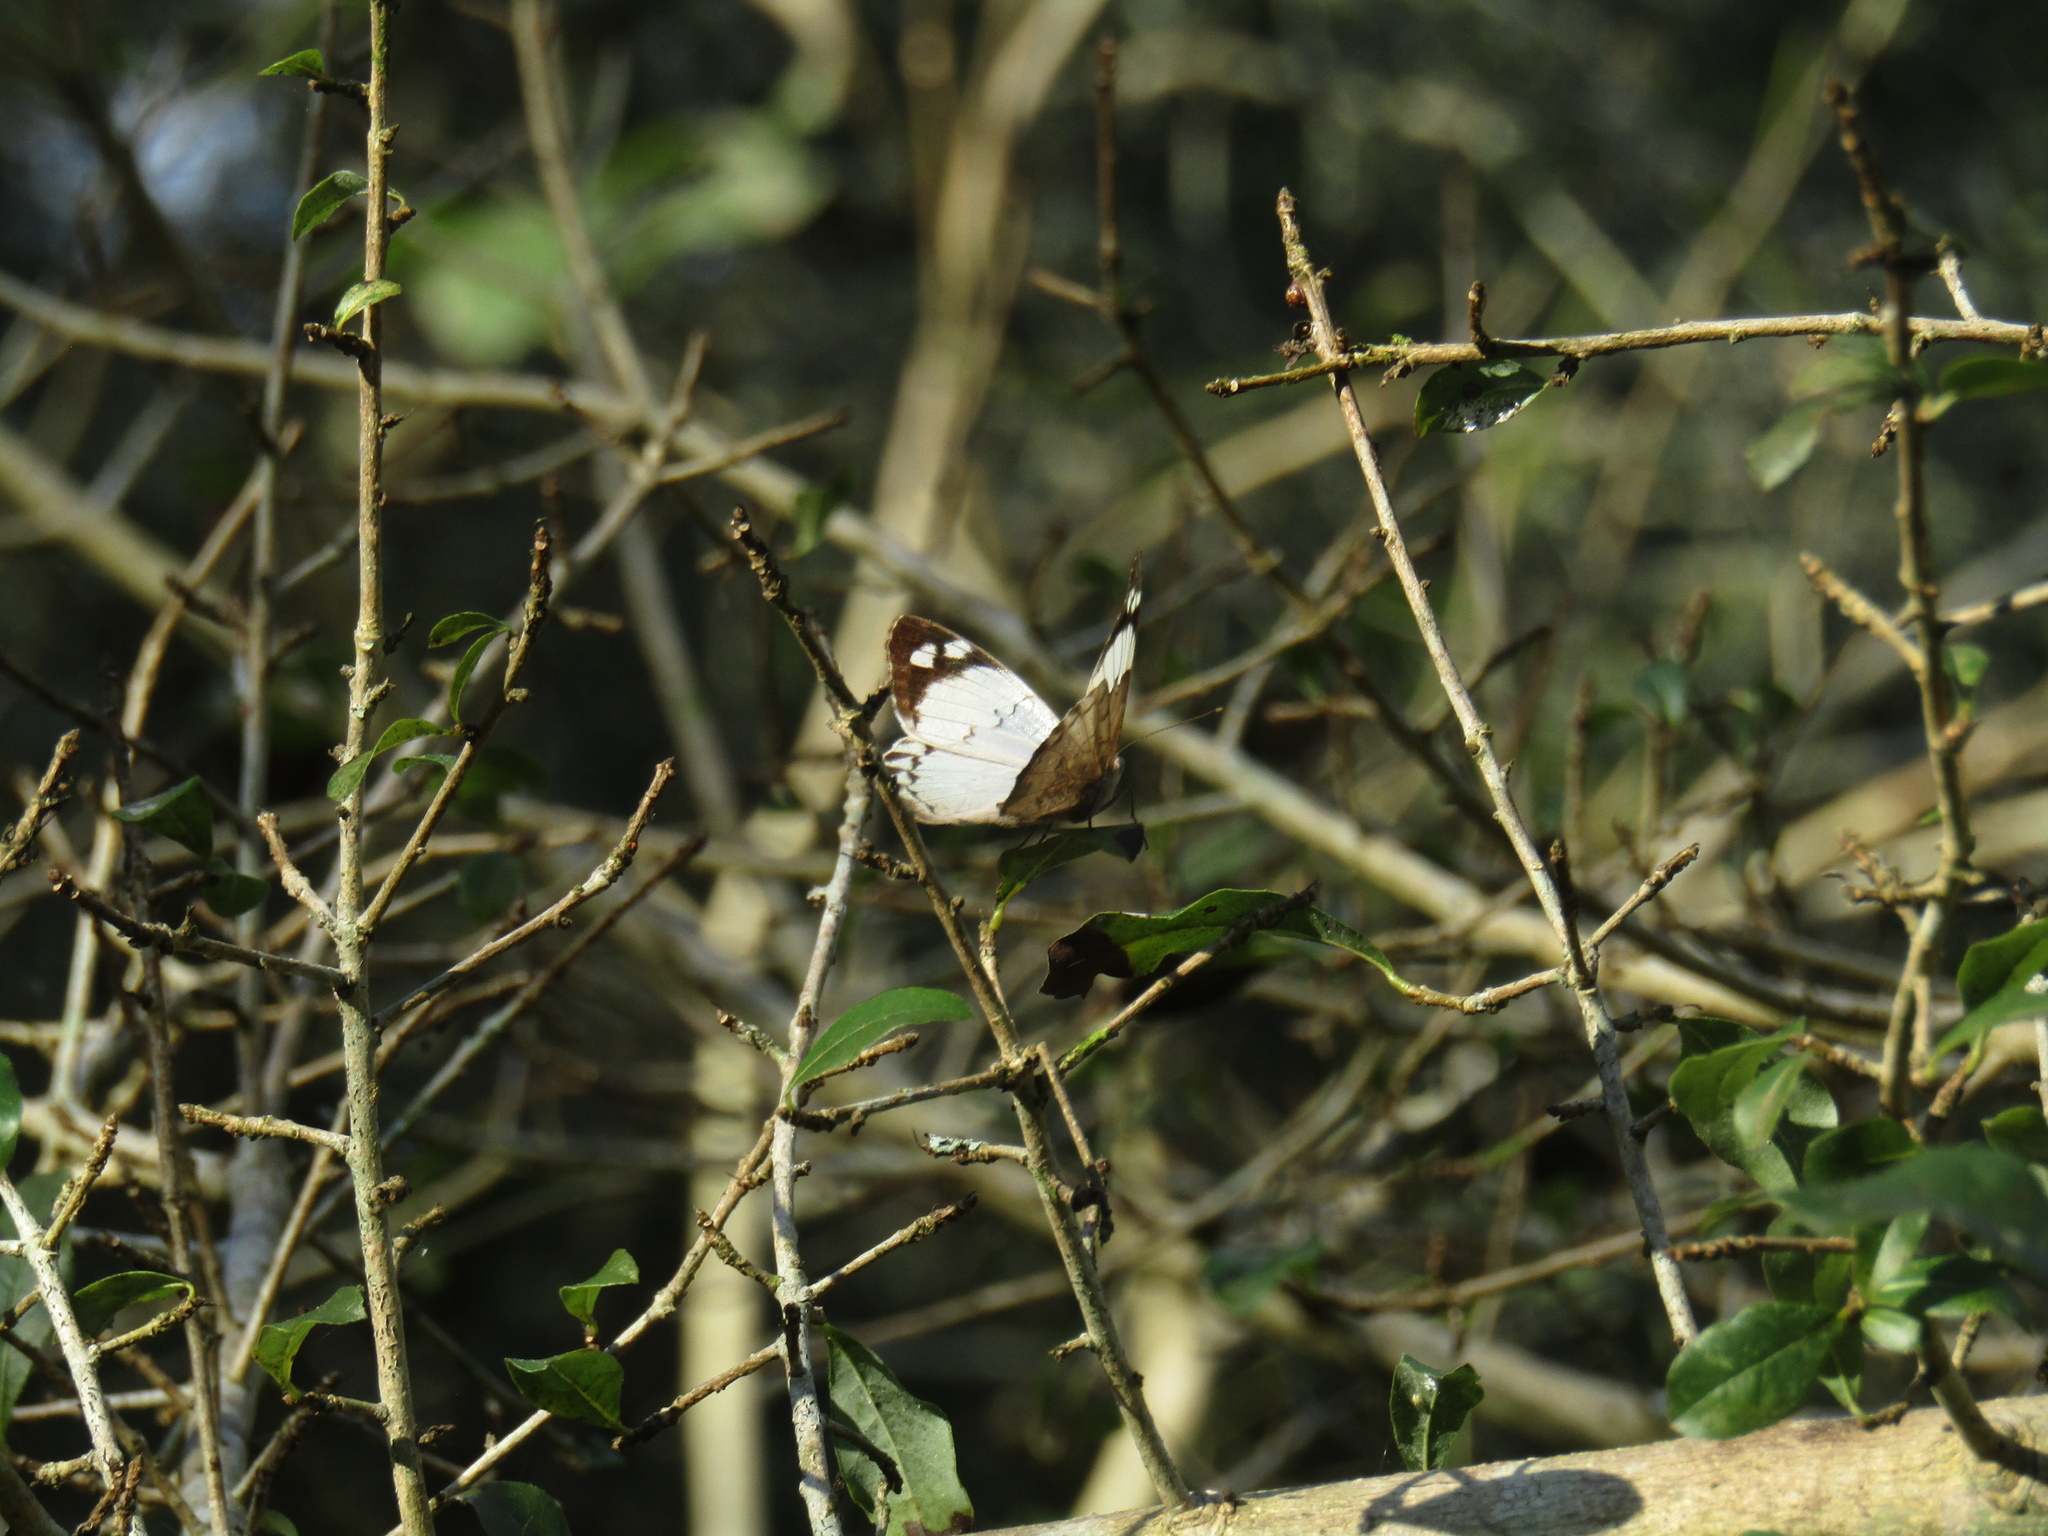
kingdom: Animalia
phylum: Arthropoda
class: Insecta
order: Lepidoptera
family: Nymphalidae
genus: Eunica
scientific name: Eunica eburnea
